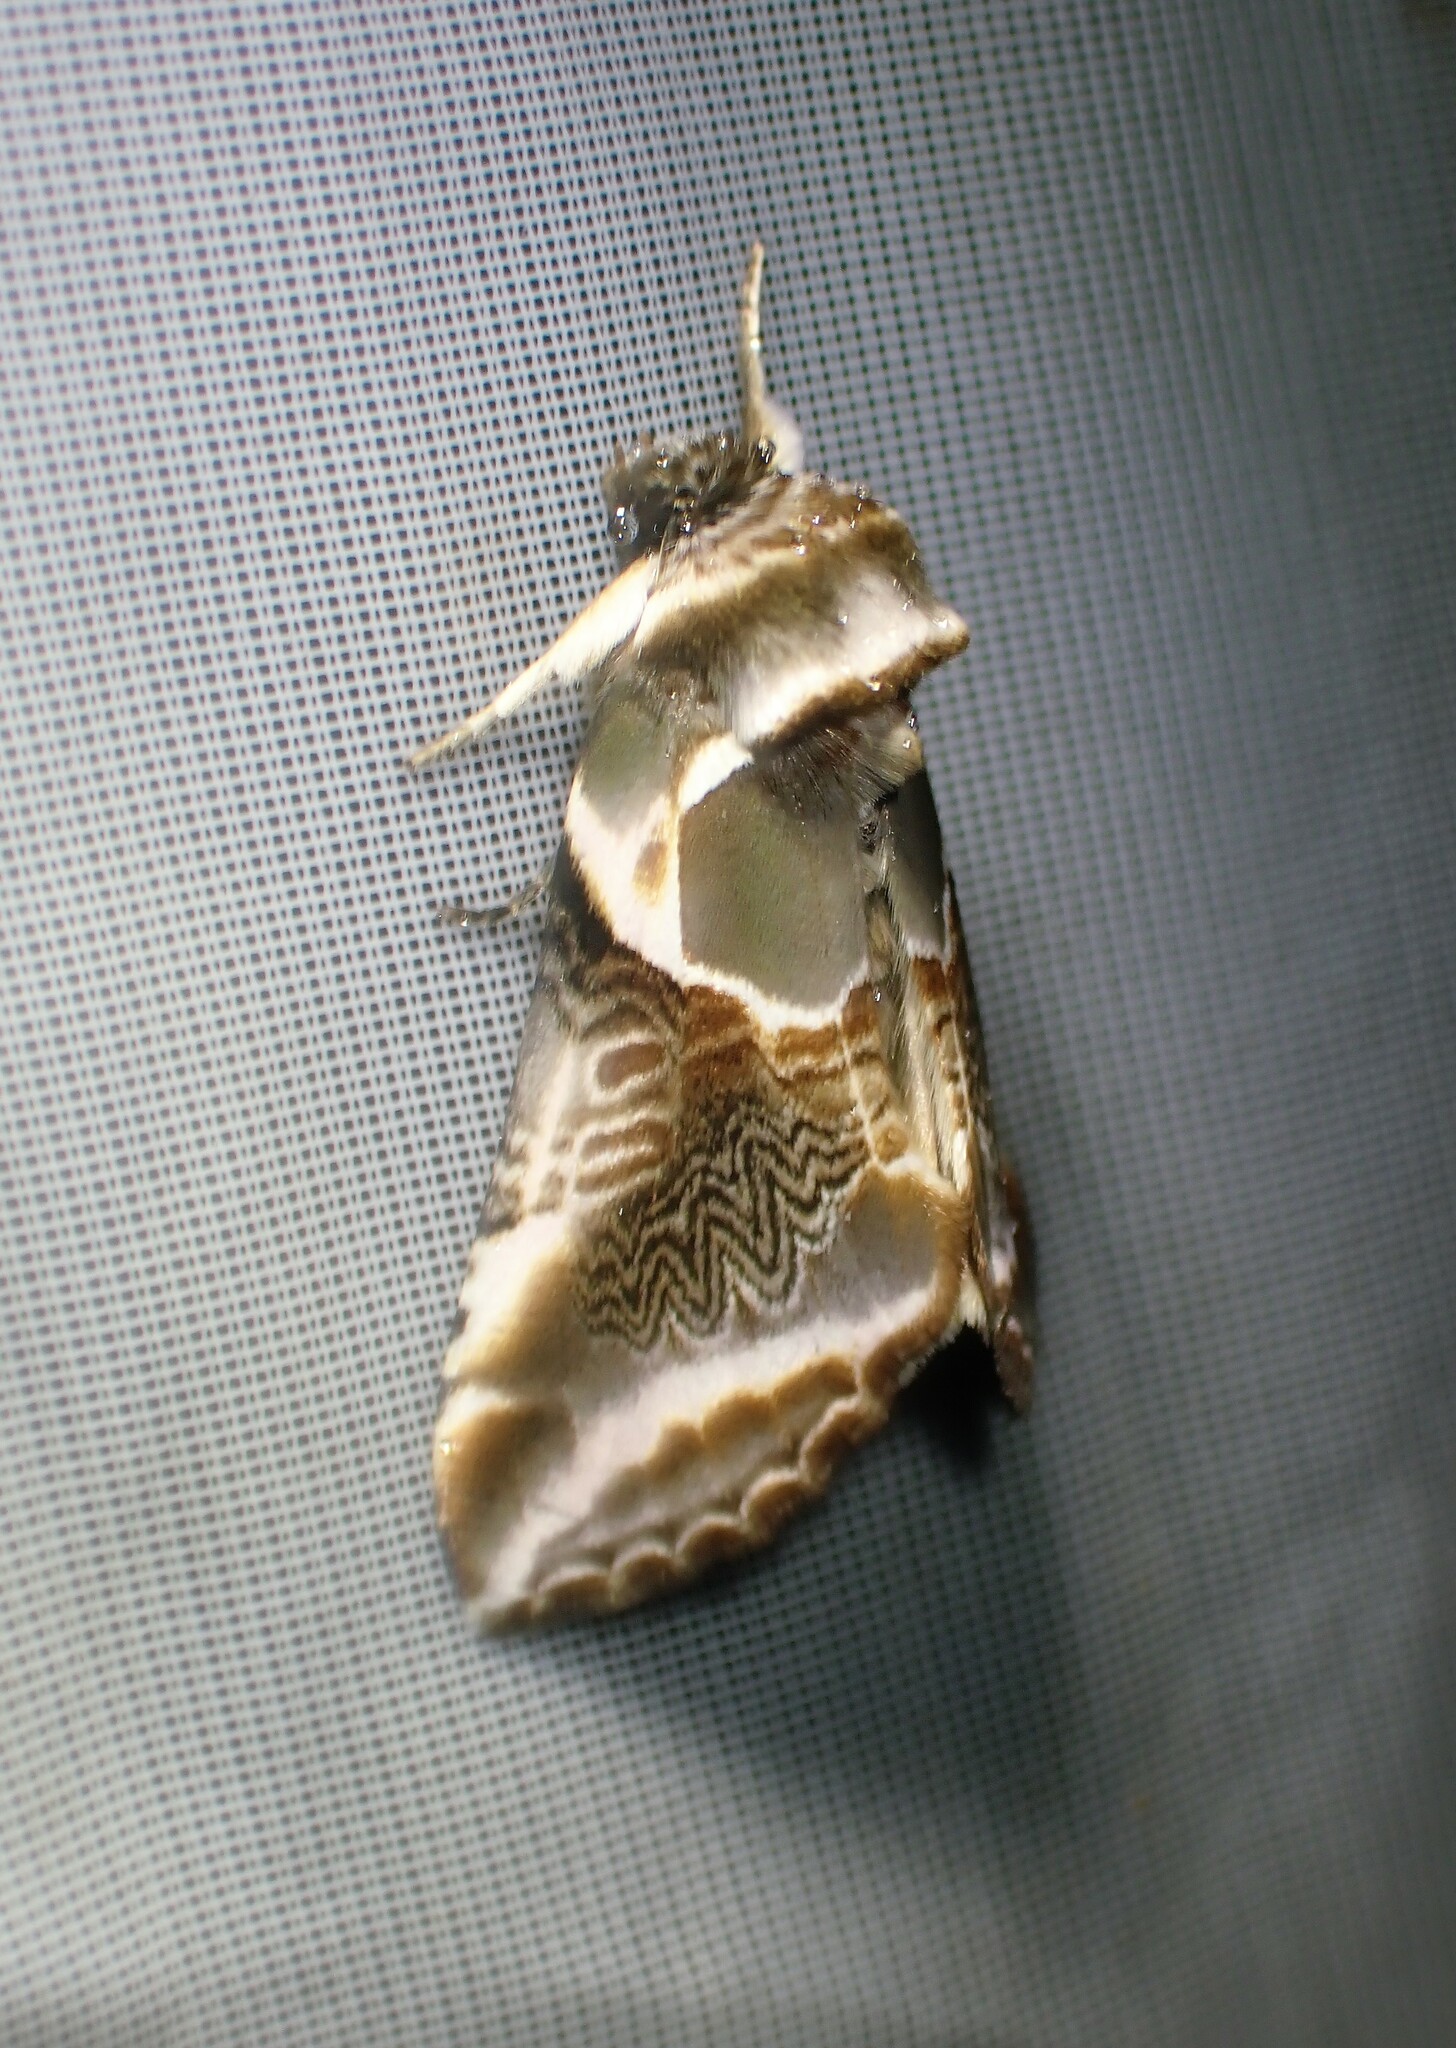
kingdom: Animalia
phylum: Arthropoda
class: Insecta
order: Lepidoptera
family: Drepanidae
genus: Habrosyne
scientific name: Habrosyne scripta
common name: Lettered habrosyne moth
